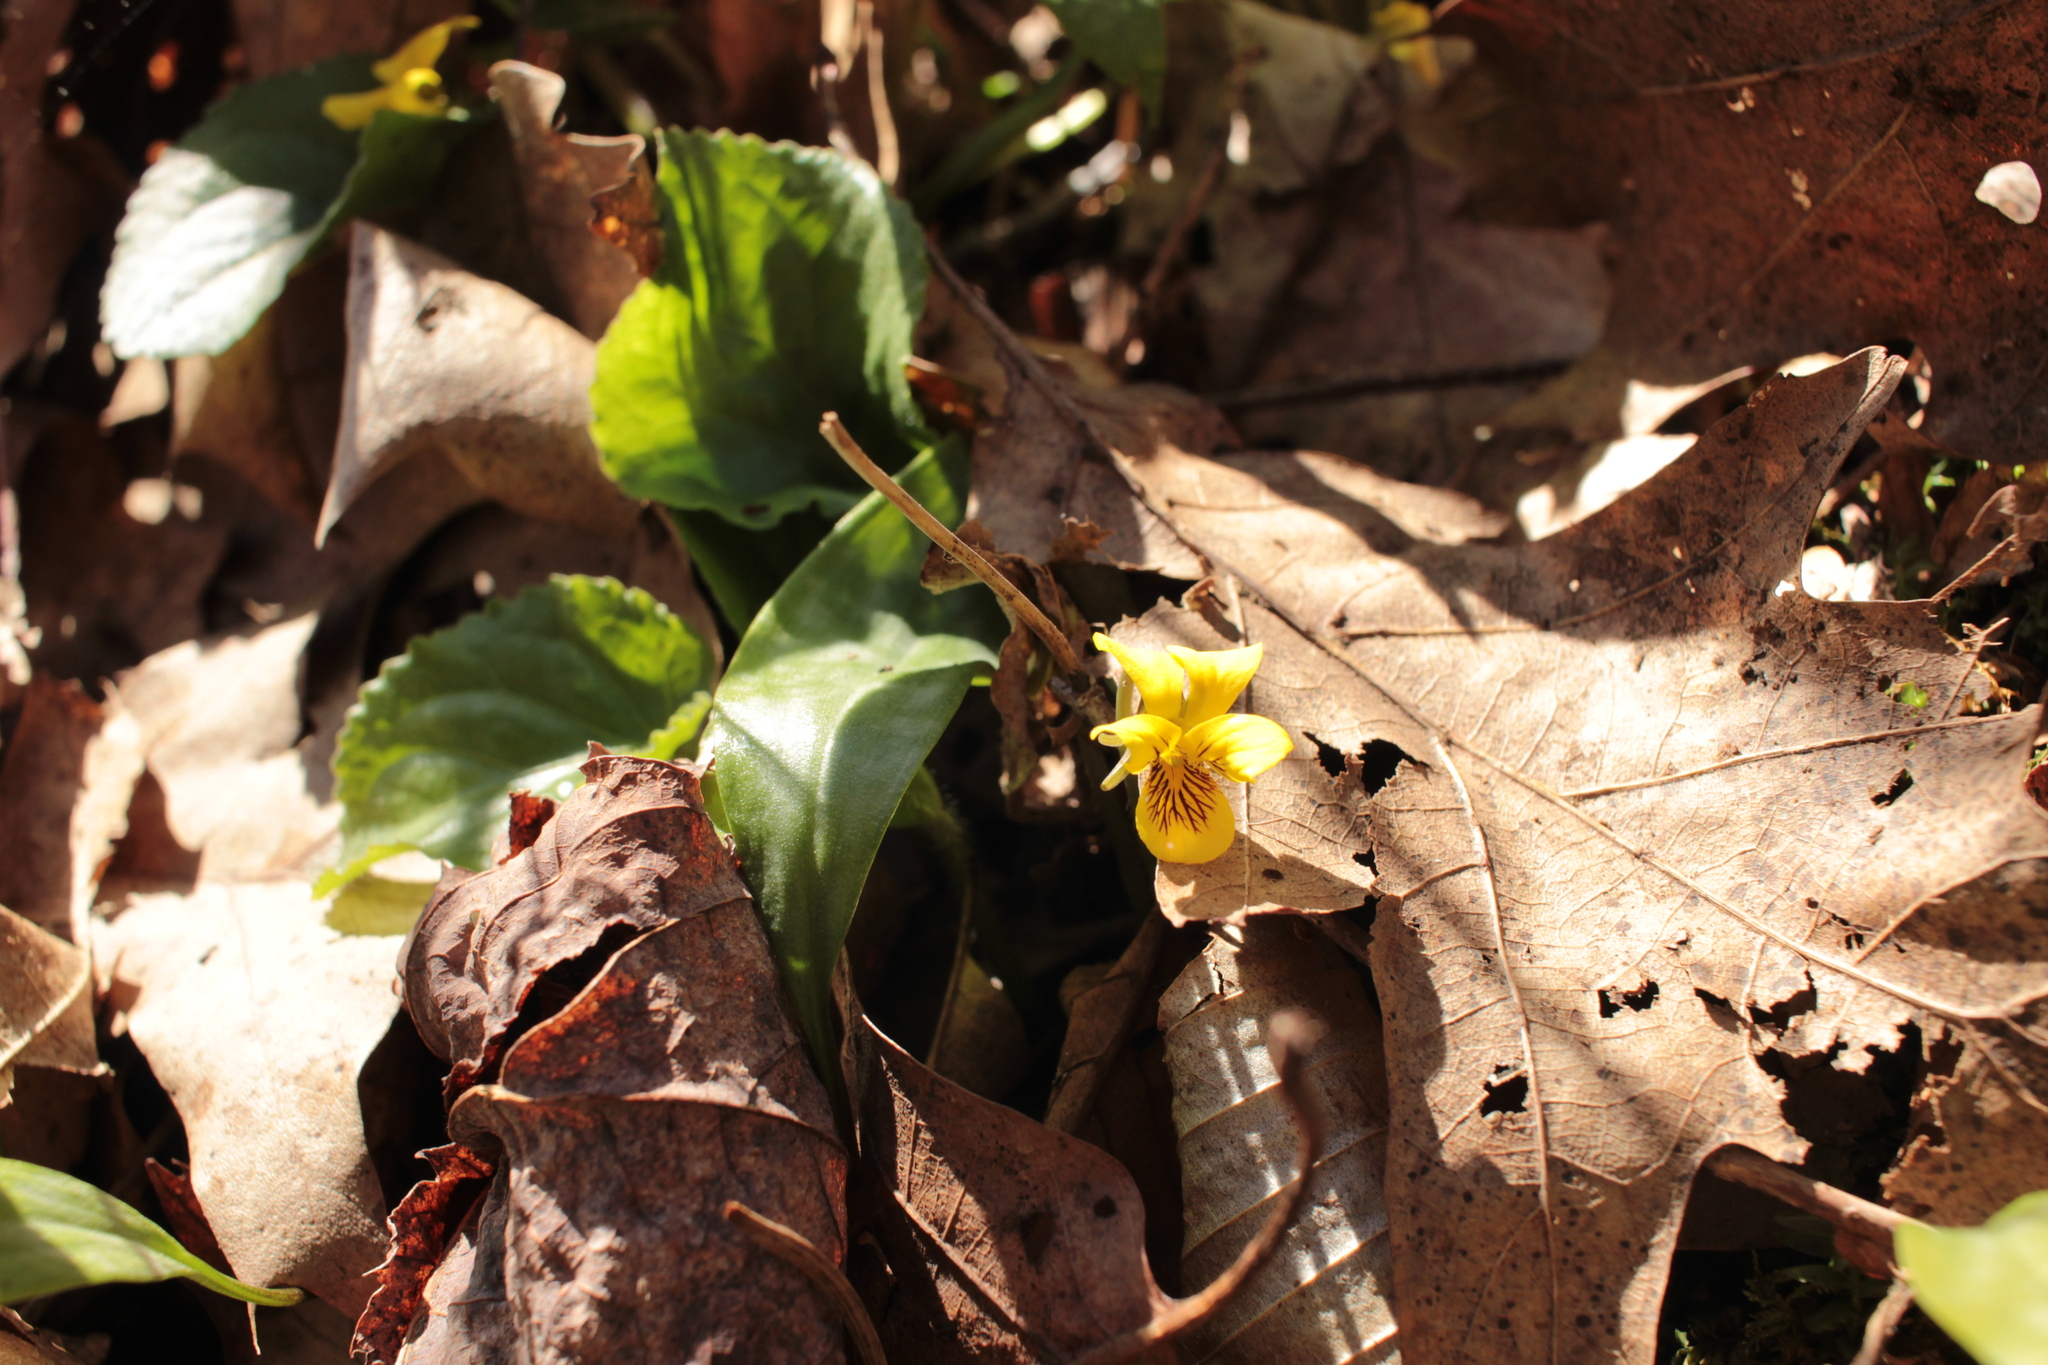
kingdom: Plantae
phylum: Tracheophyta
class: Magnoliopsida
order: Malpighiales
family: Violaceae
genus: Viola
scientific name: Viola rotundifolia
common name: Early yellow violet
